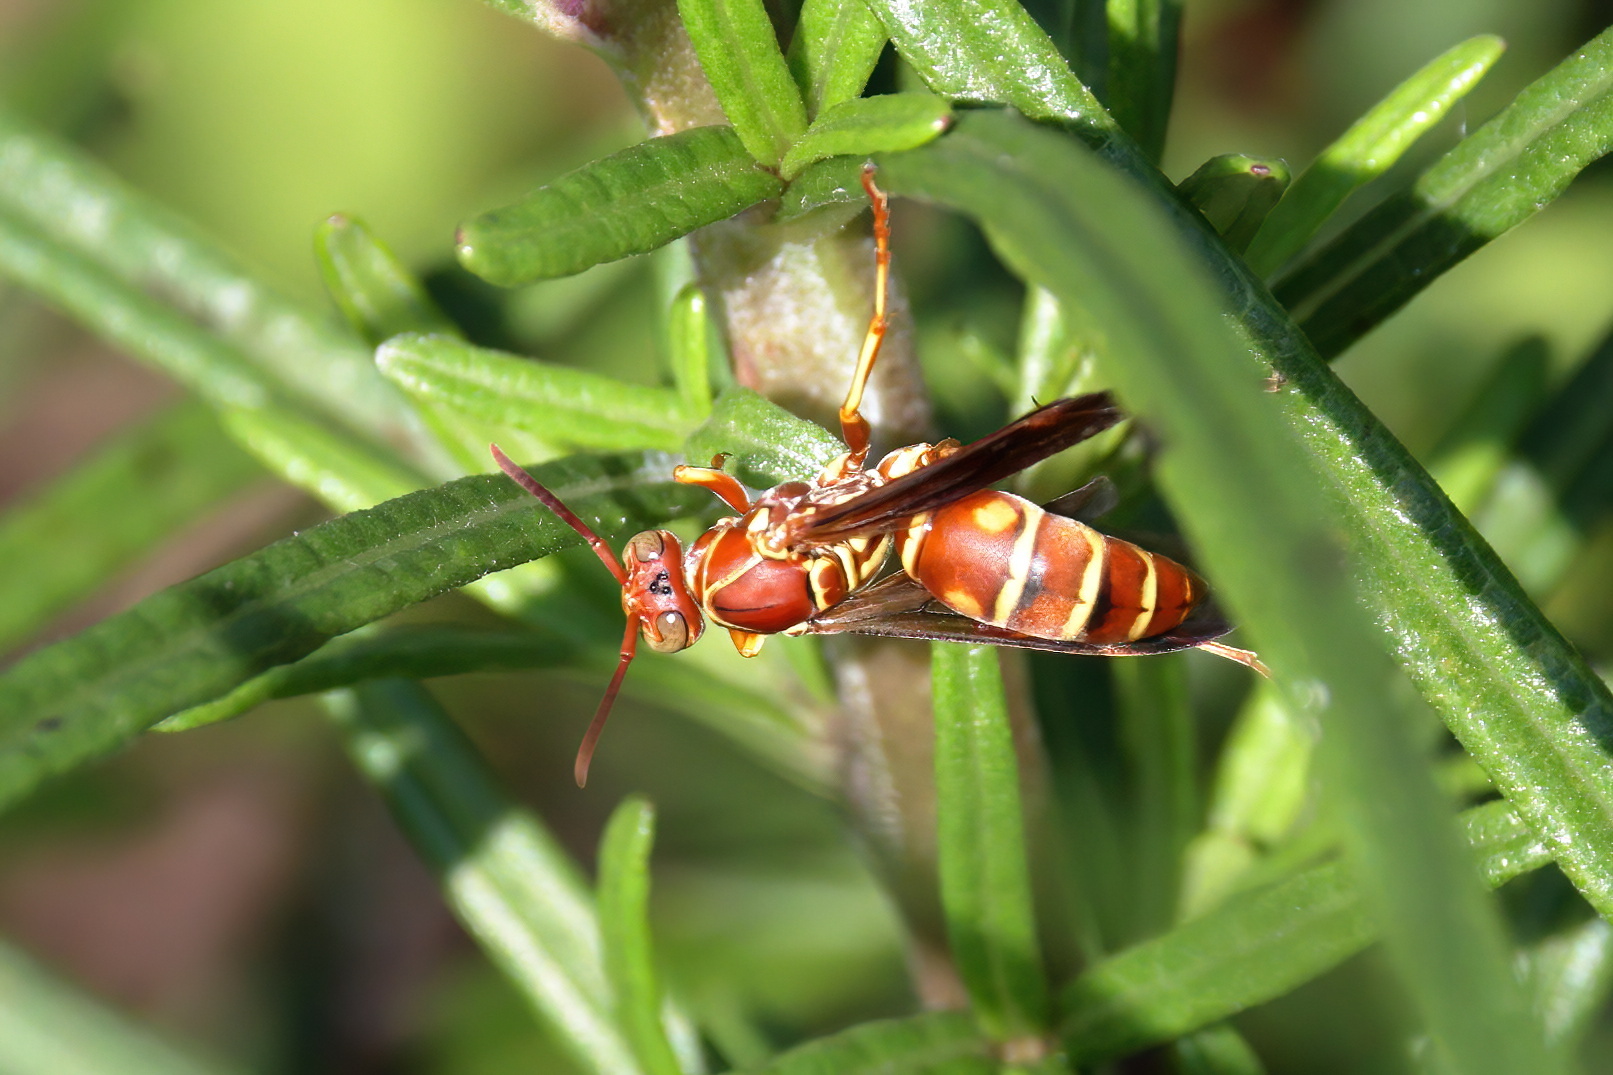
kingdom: Animalia
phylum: Arthropoda
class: Insecta
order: Hymenoptera
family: Eumenidae
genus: Polistes
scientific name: Polistes bellicosus
